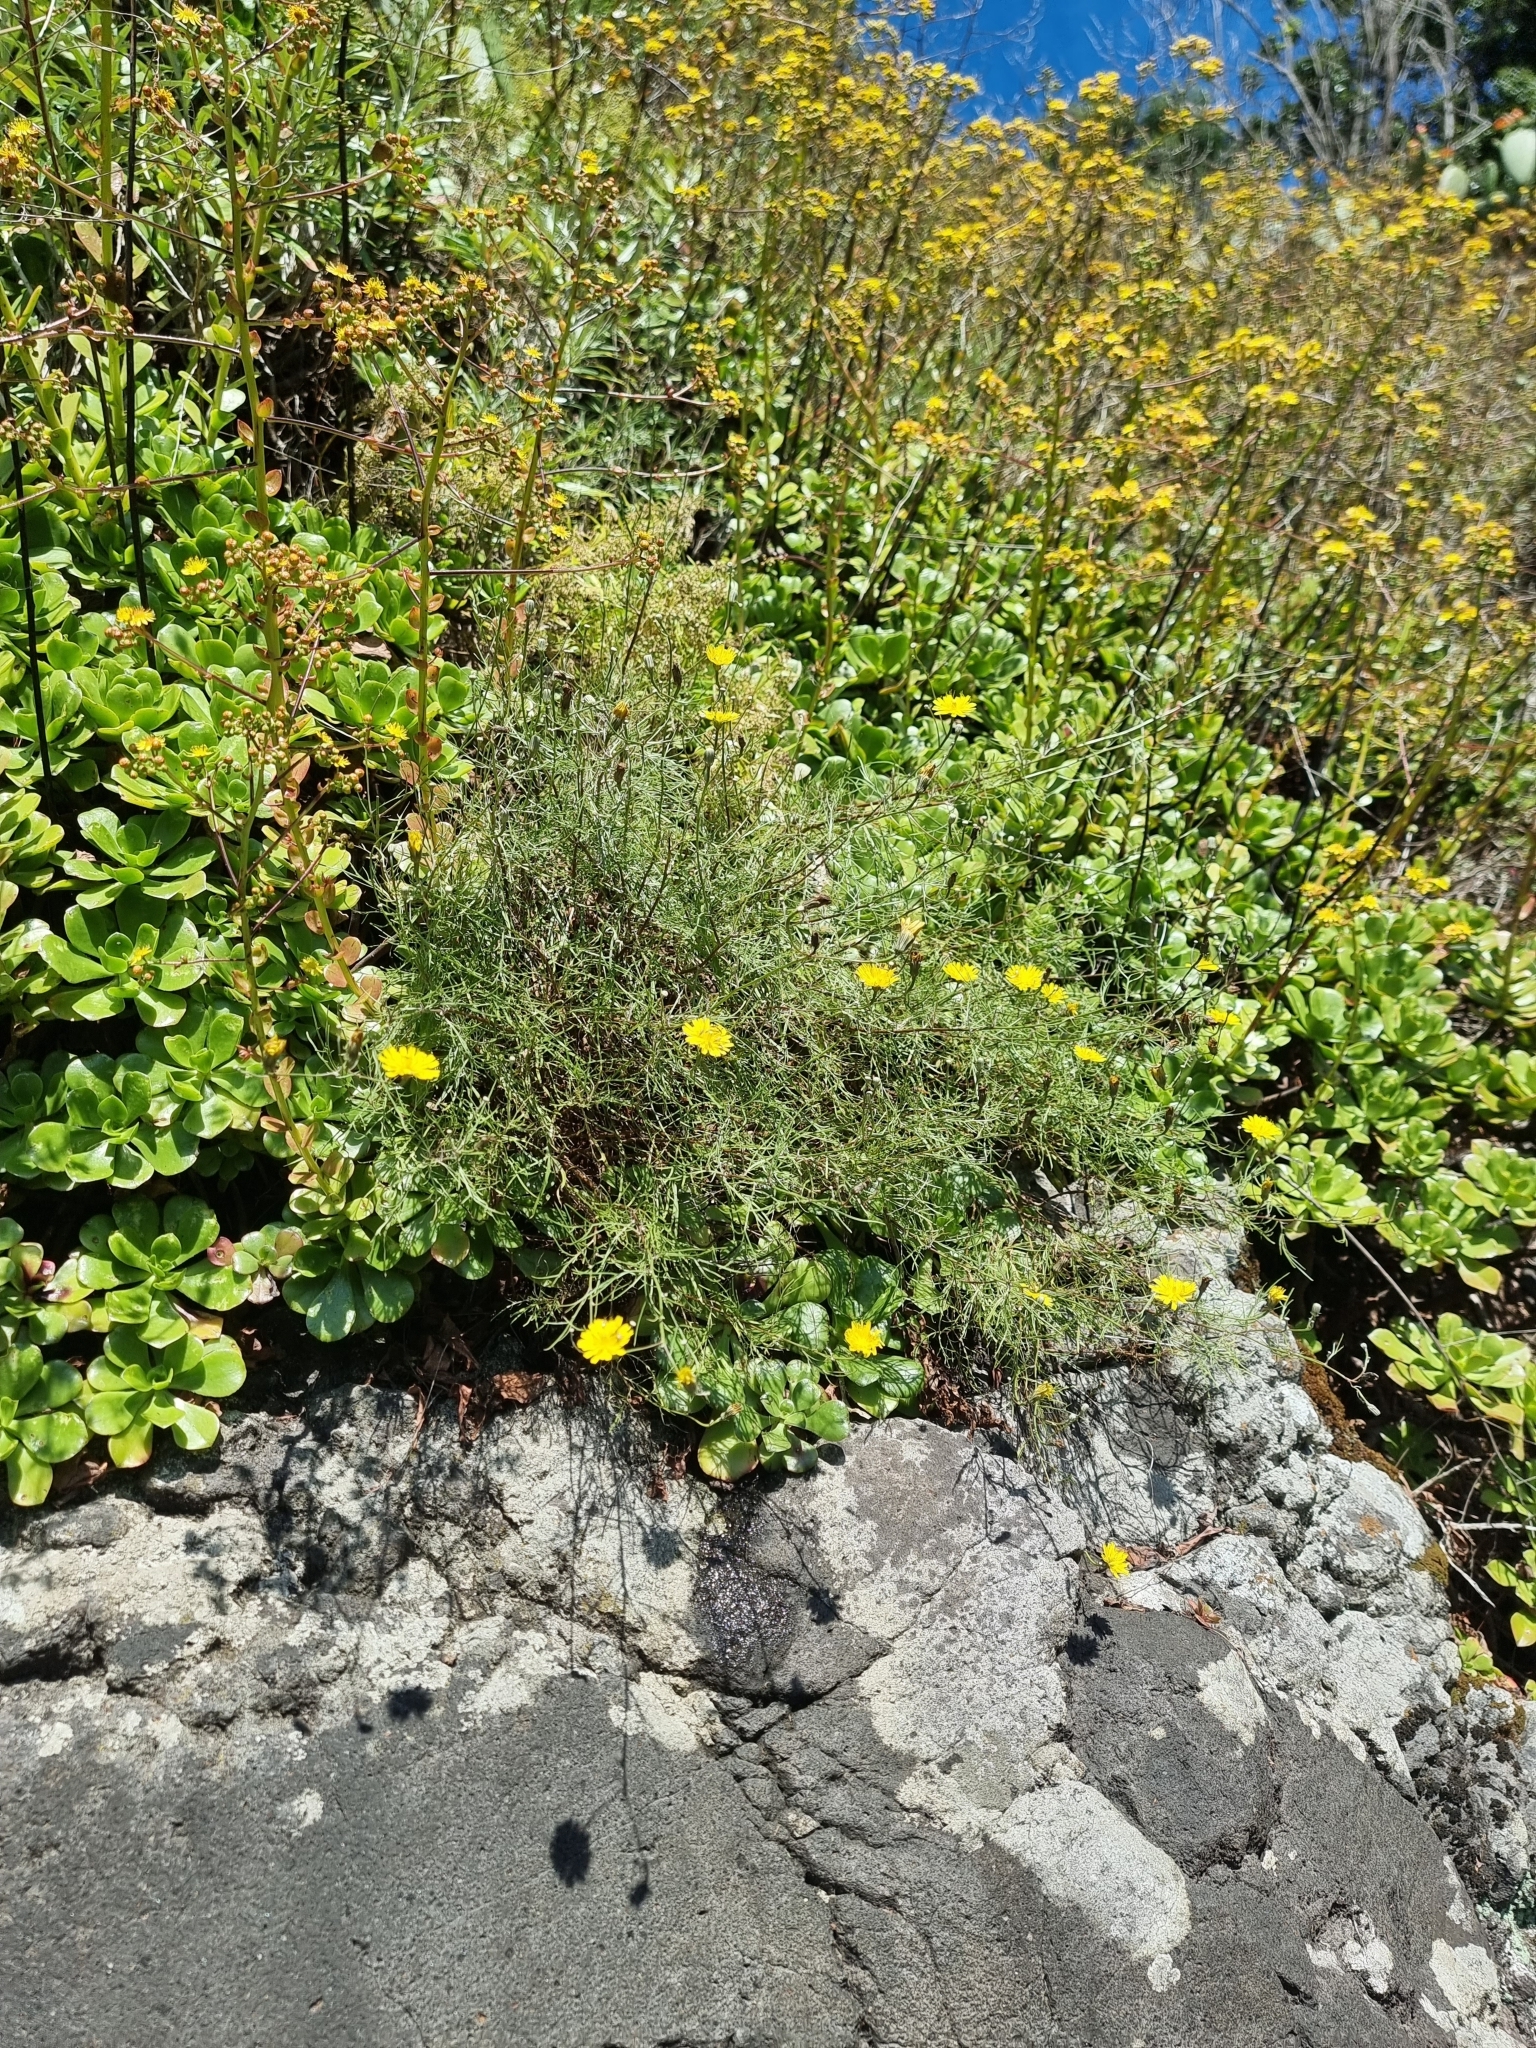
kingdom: Plantae
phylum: Tracheophyta
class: Magnoliopsida
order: Asterales
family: Asteraceae
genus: Tolpis
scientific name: Tolpis succulenta
